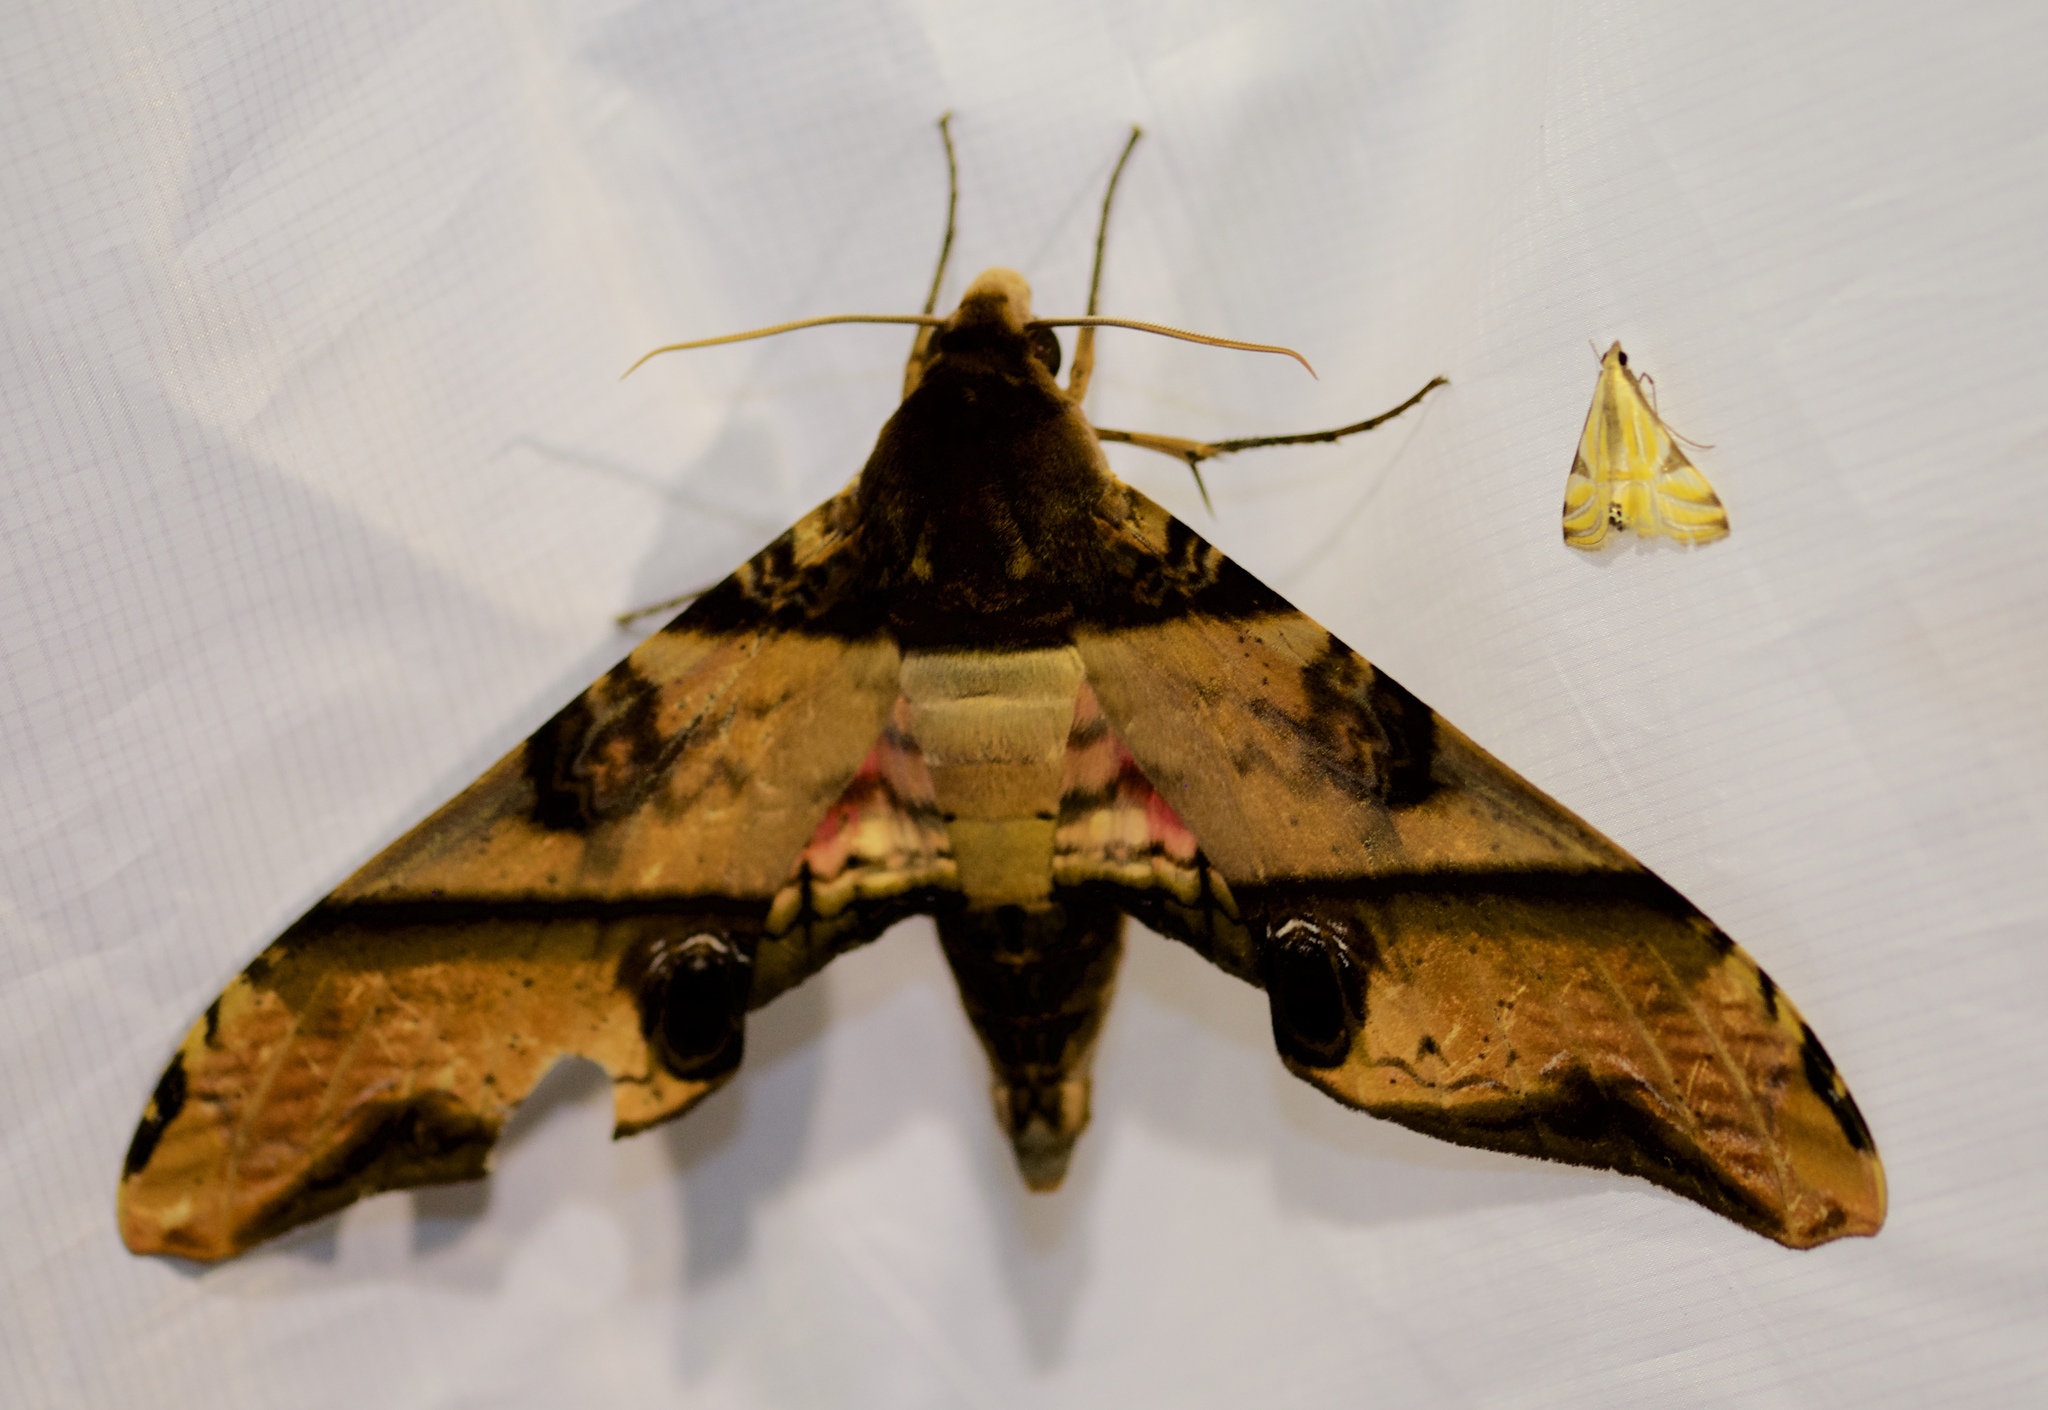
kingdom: Animalia
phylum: Arthropoda
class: Insecta
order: Lepidoptera
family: Sphingidae
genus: Amplypterus
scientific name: Amplypterus panopus
